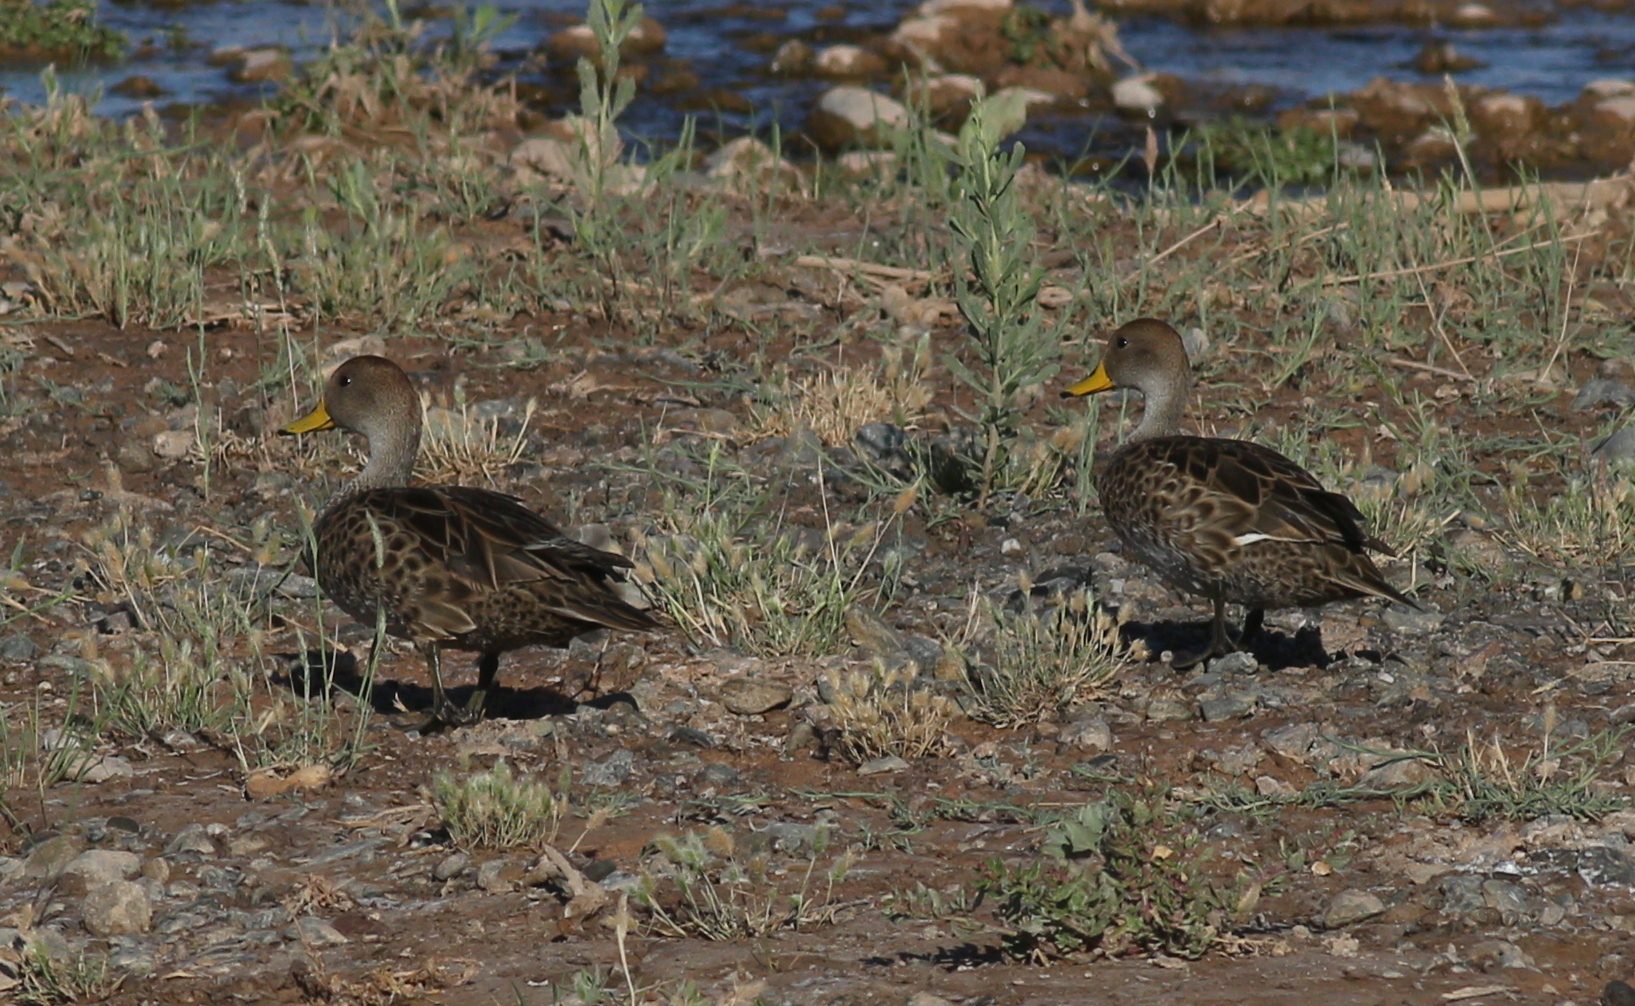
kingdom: Animalia
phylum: Chordata
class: Aves
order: Anseriformes
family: Anatidae
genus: Anas
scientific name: Anas georgica
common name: Yellow-billed pintail
